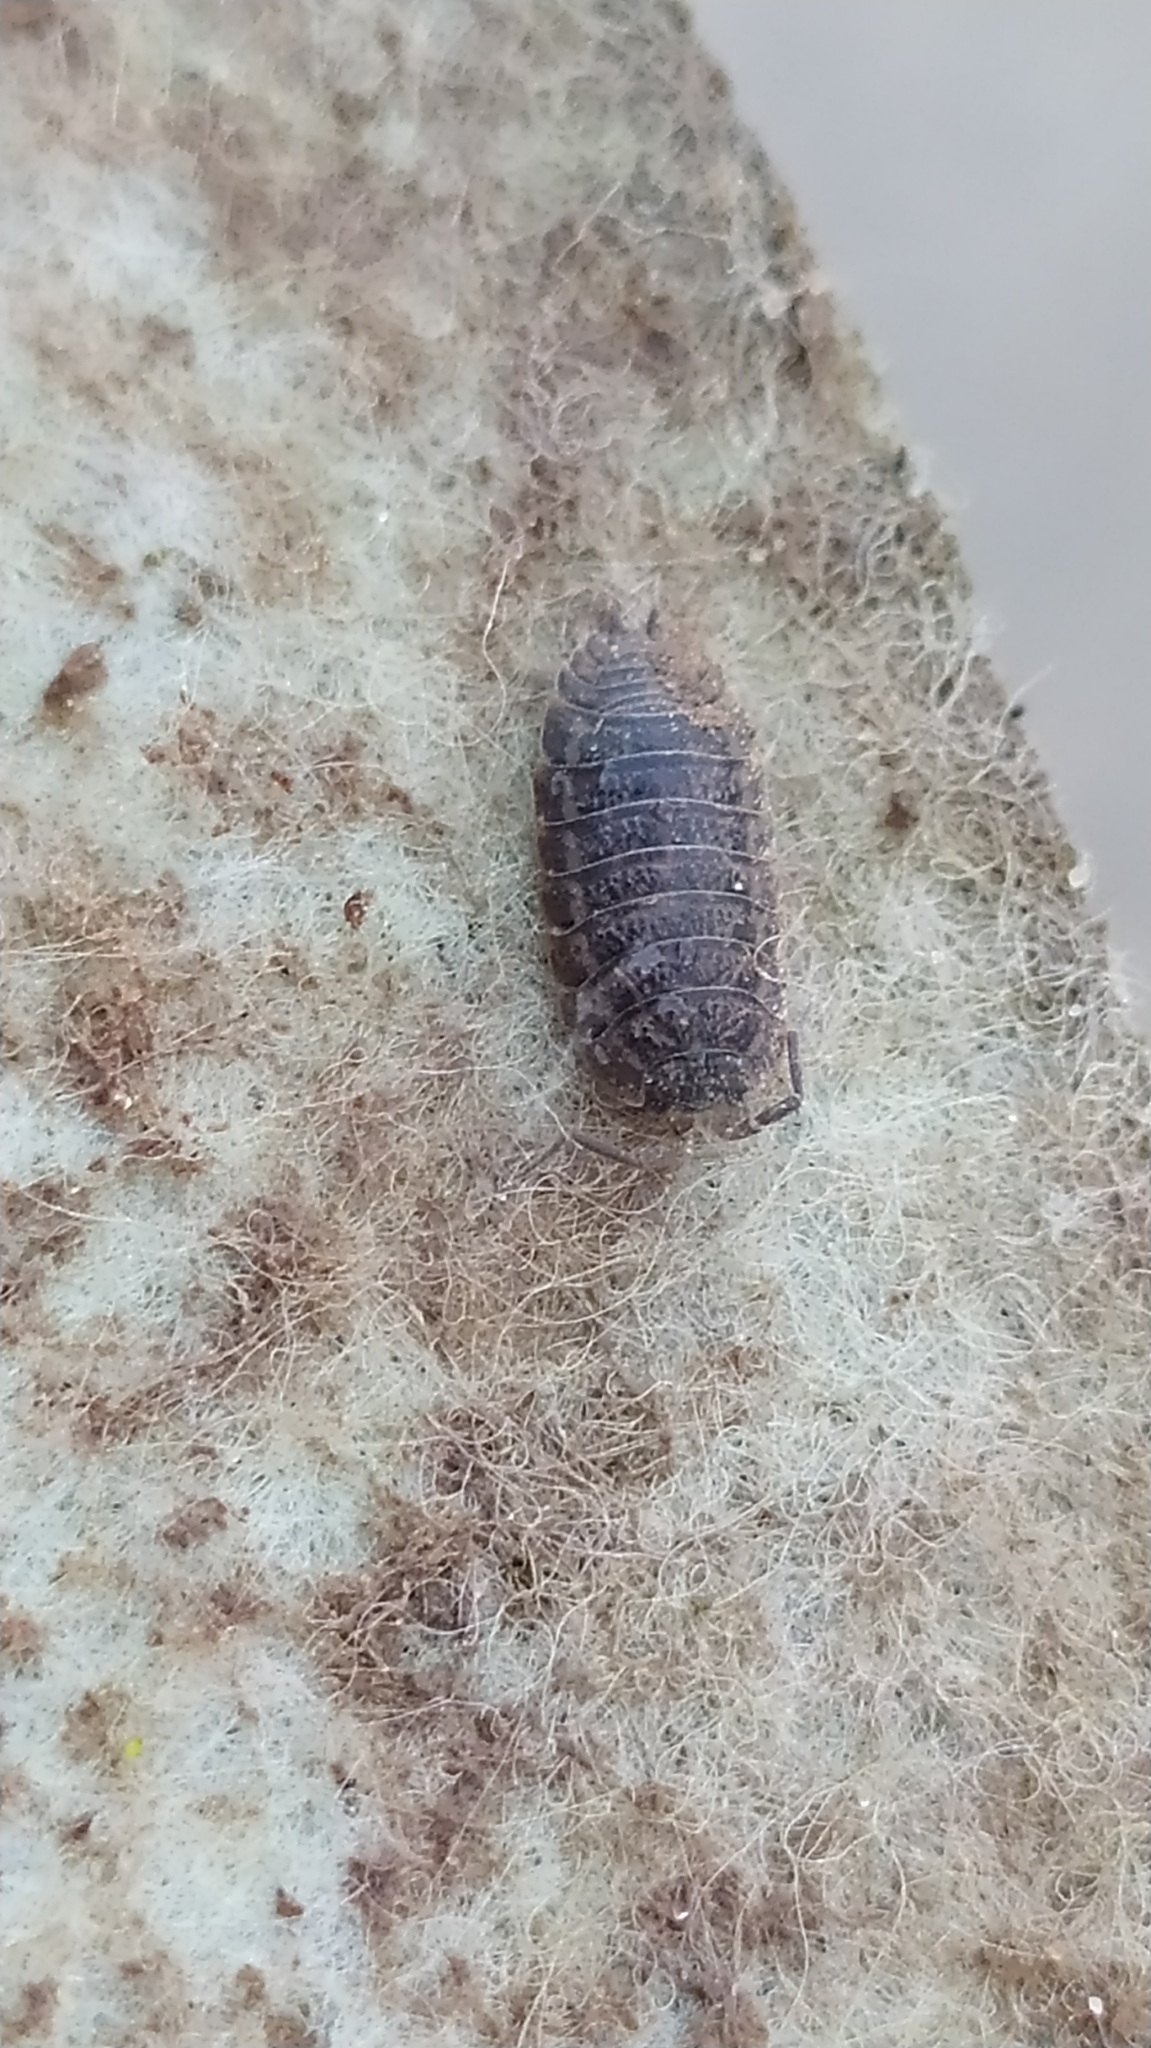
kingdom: Animalia
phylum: Arthropoda
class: Malacostraca
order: Isopoda
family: Trachelipodidae
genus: Trachelipus
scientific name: Trachelipus rathkii
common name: Isopod
